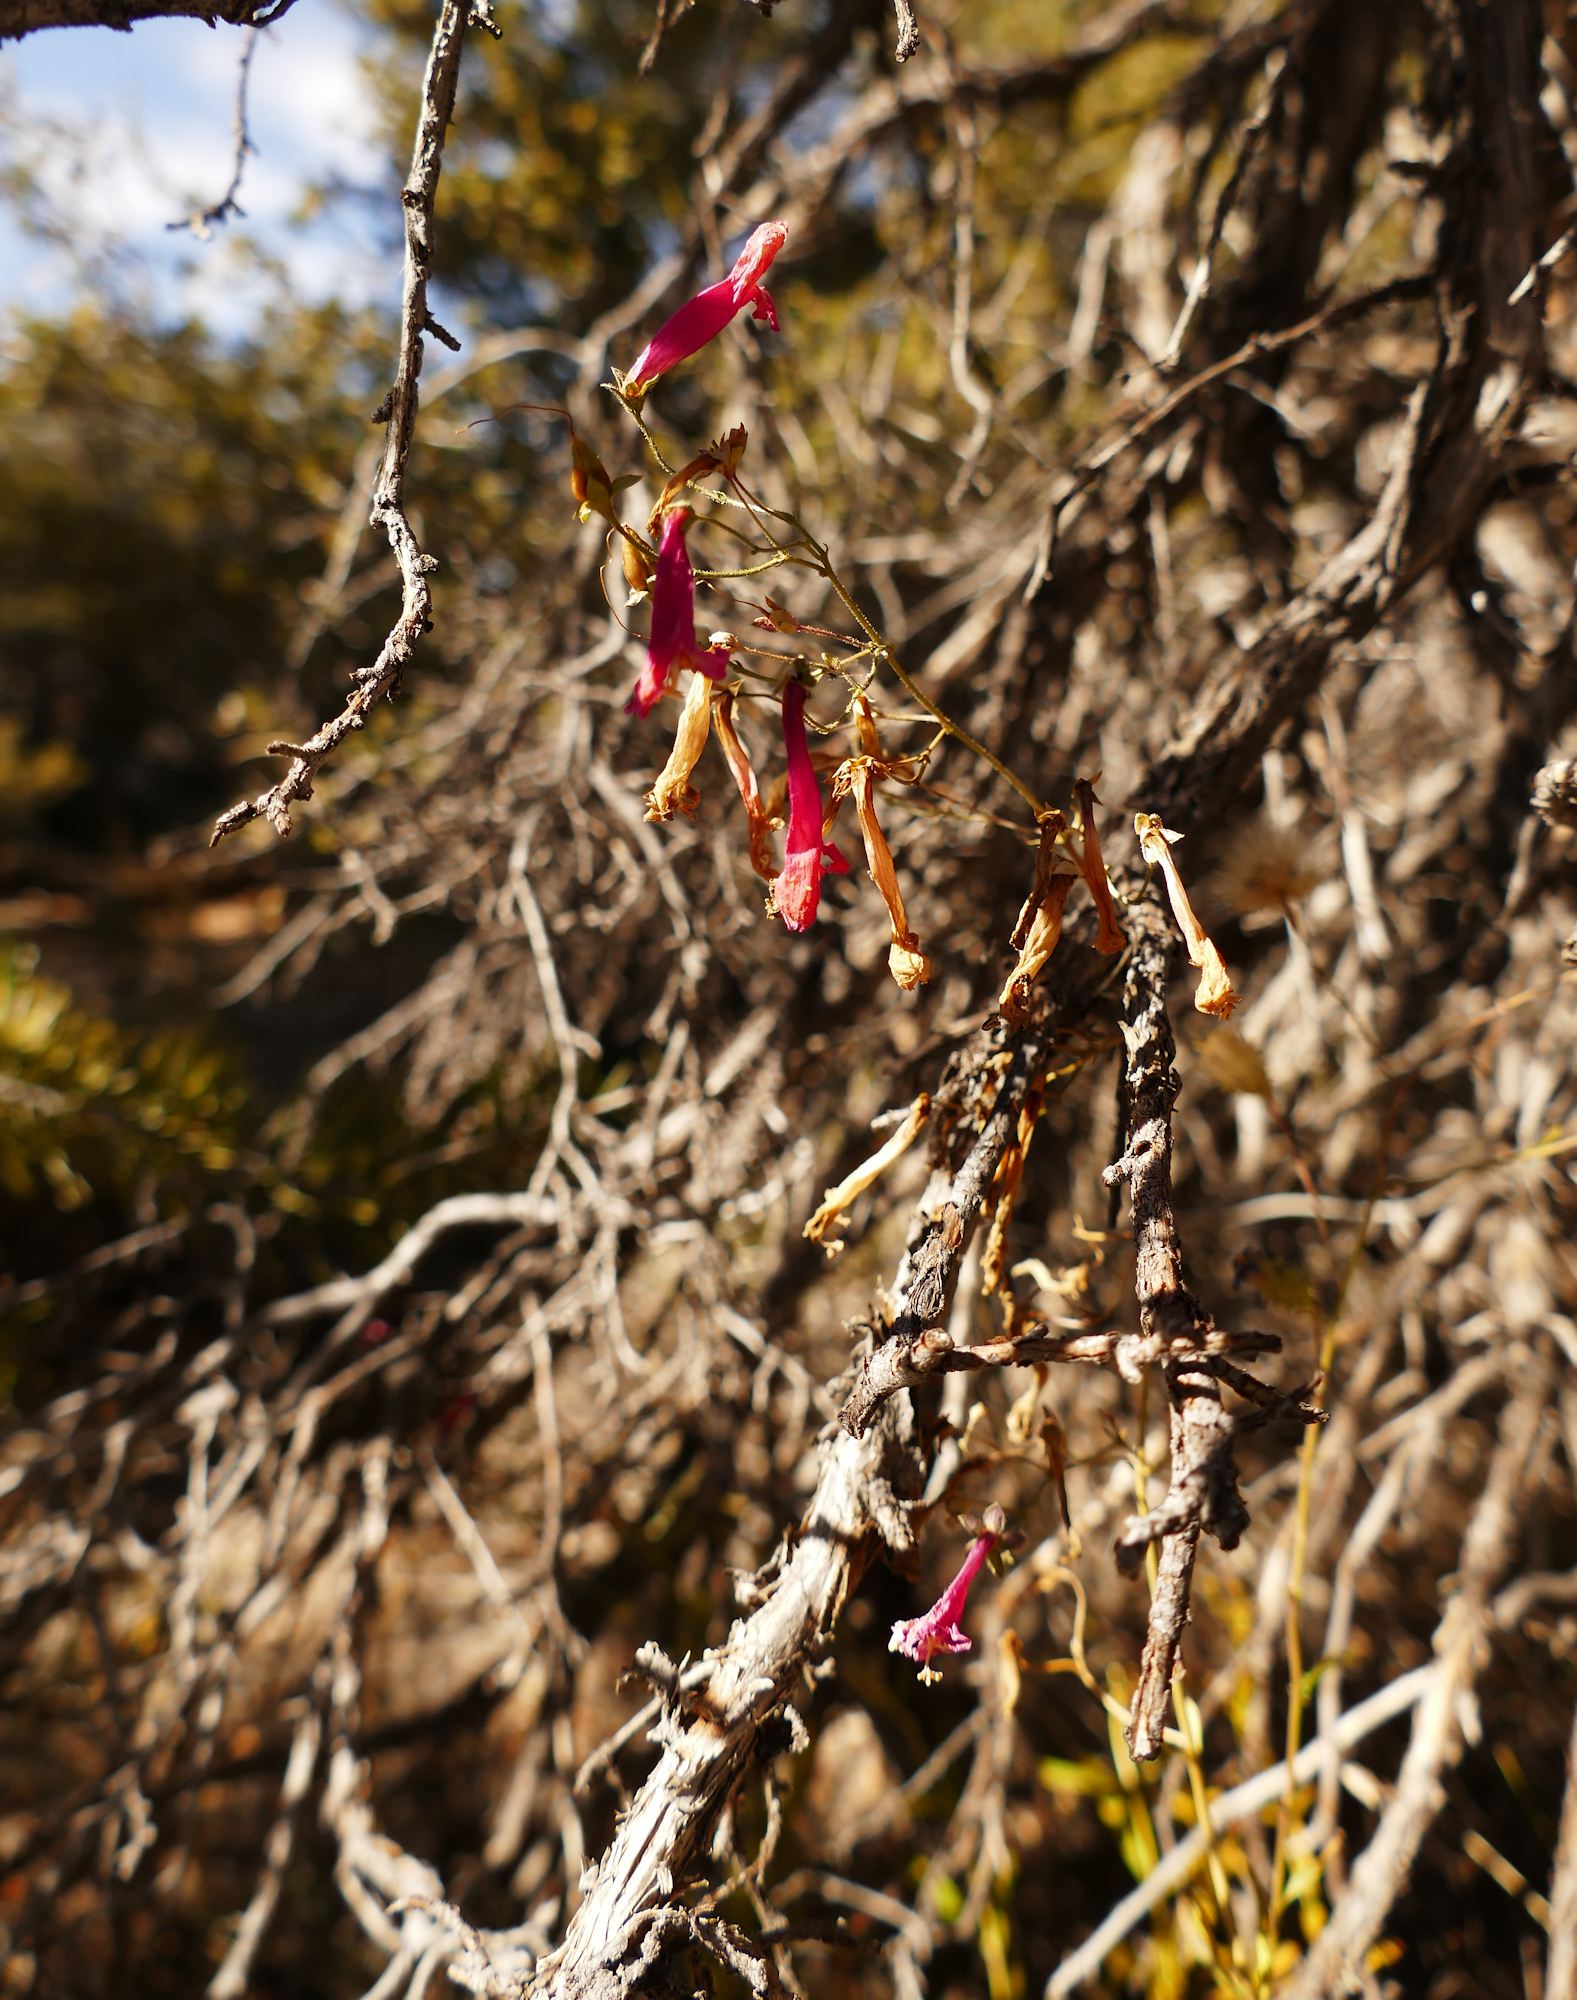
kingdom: Plantae
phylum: Tracheophyta
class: Magnoliopsida
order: Lamiales
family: Plantaginaceae
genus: Penstemon
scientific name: Penstemon rostriflorus
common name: Bridges's penstemon
